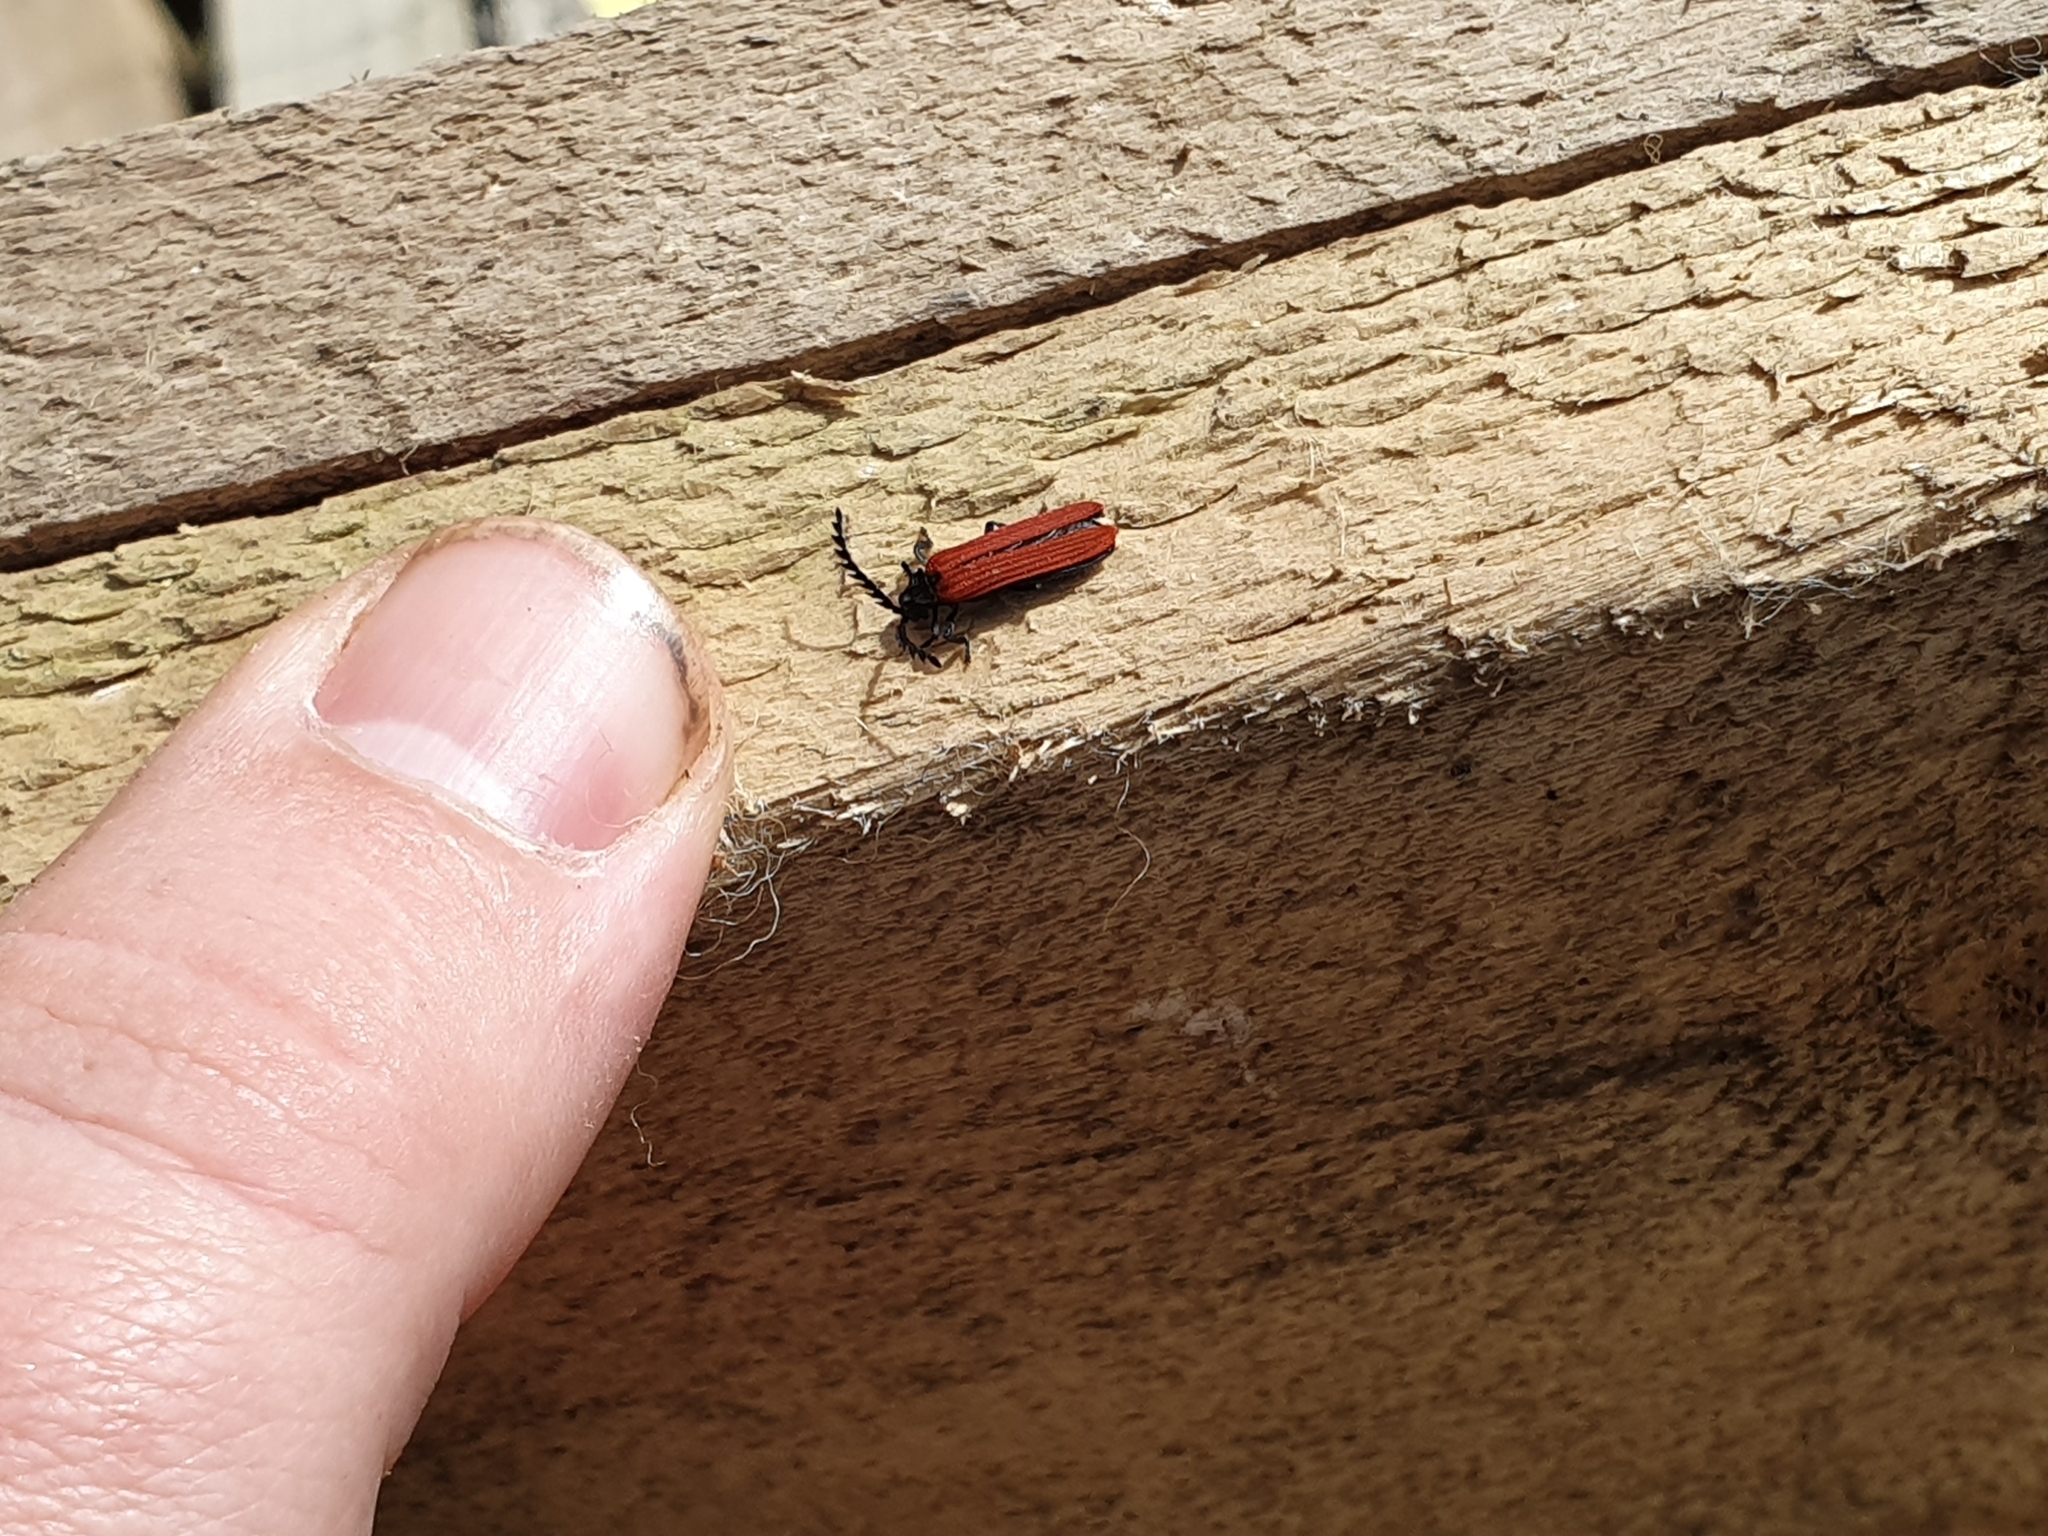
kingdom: Animalia
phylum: Arthropoda
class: Insecta
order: Coleoptera
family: Lycidae
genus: Porrostoma
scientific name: Porrostoma rufipenne
